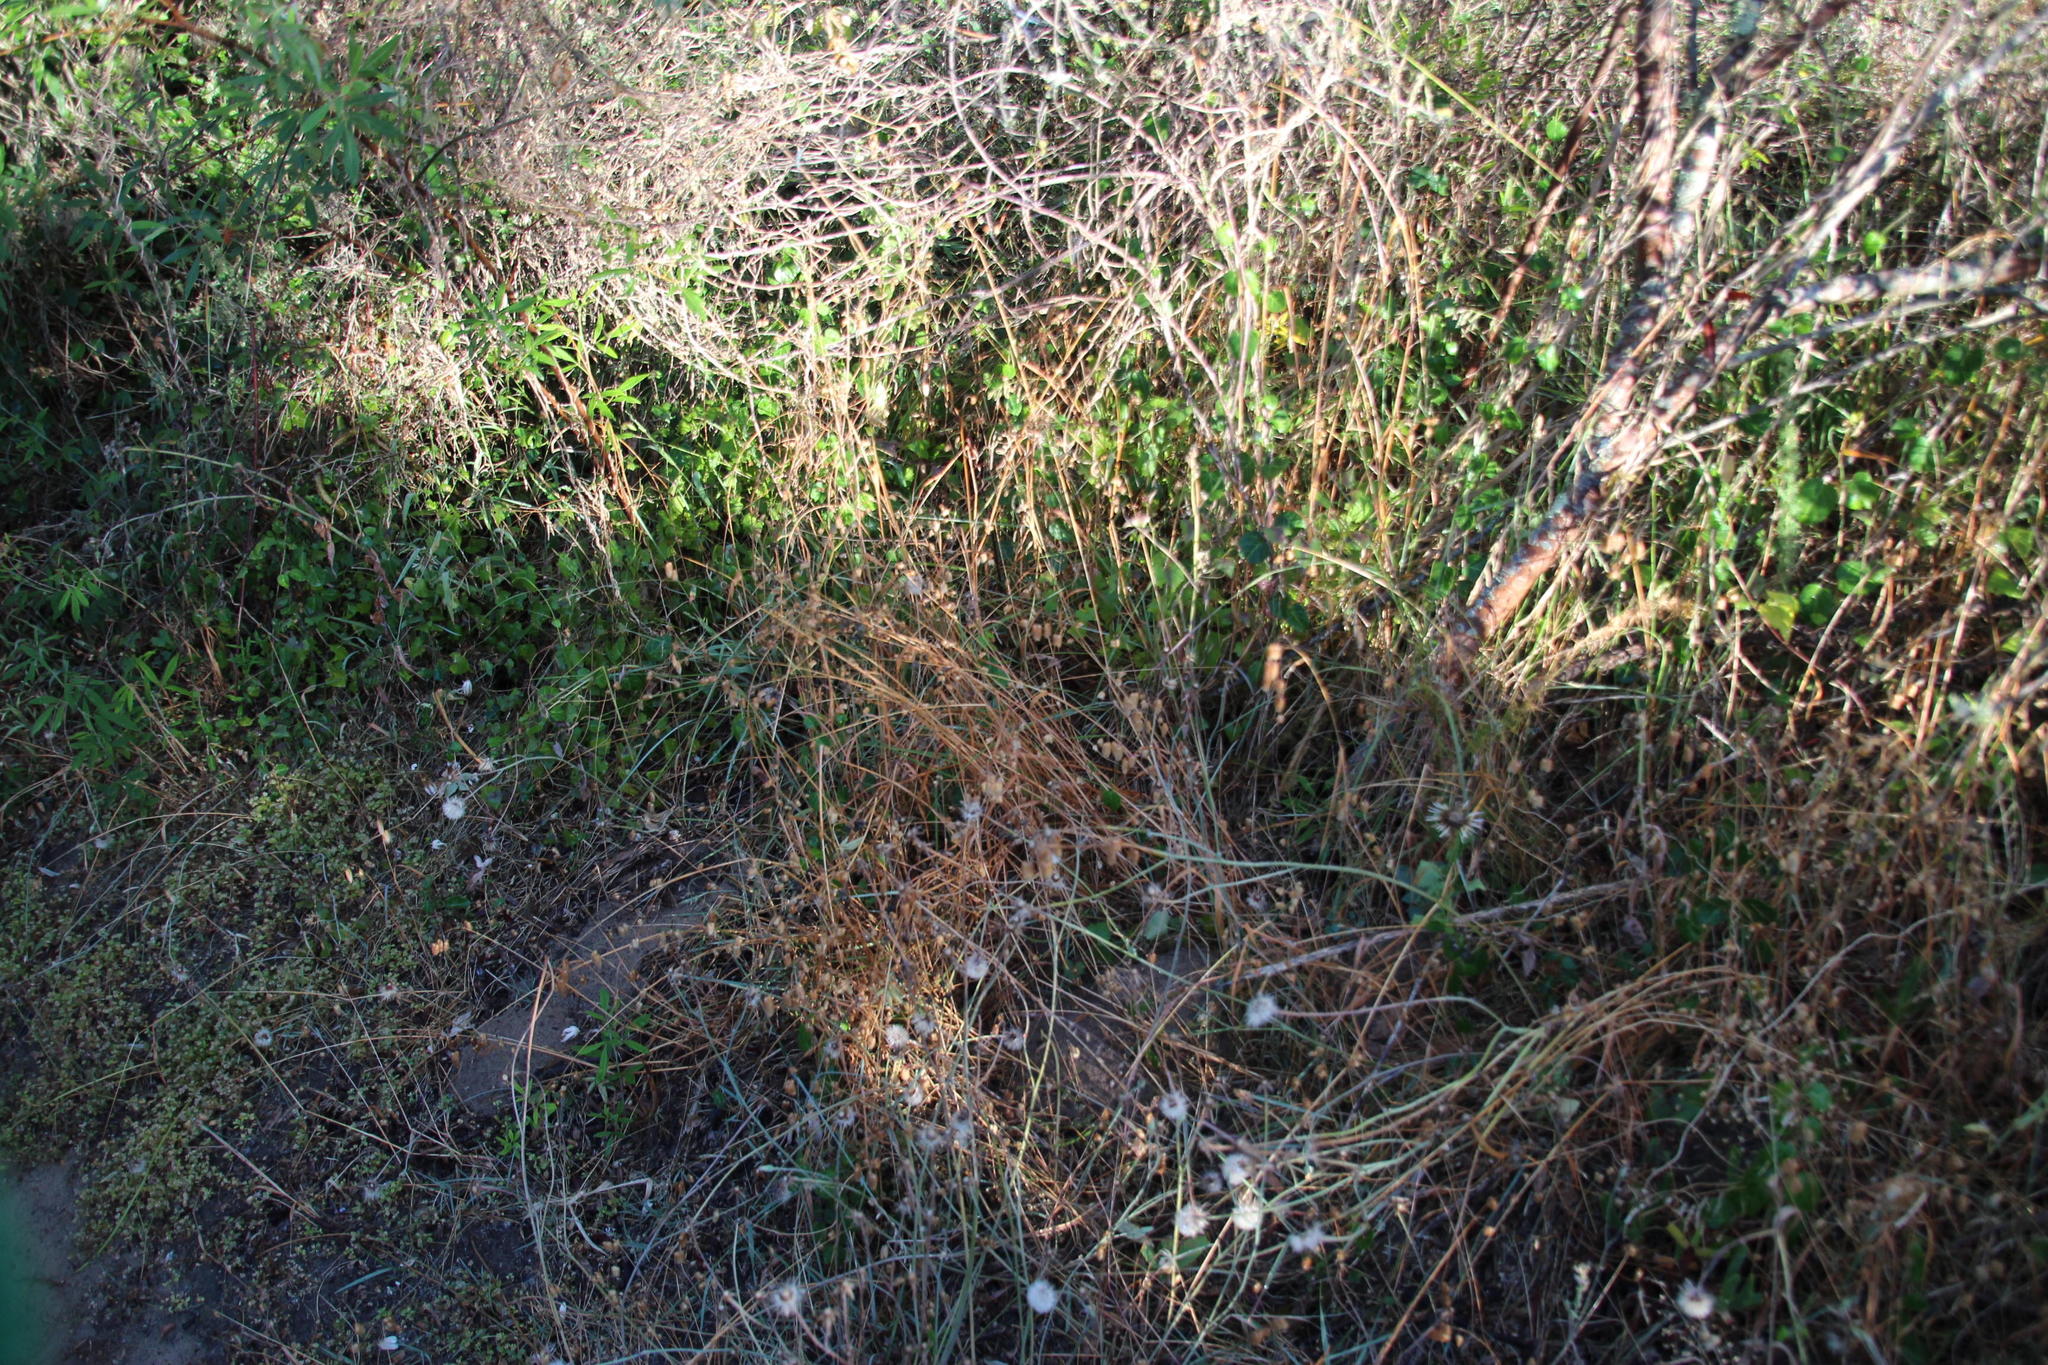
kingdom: Plantae
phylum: Tracheophyta
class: Liliopsida
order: Poales
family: Poaceae
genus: Briza
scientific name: Briza maxima
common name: Big quakinggrass
